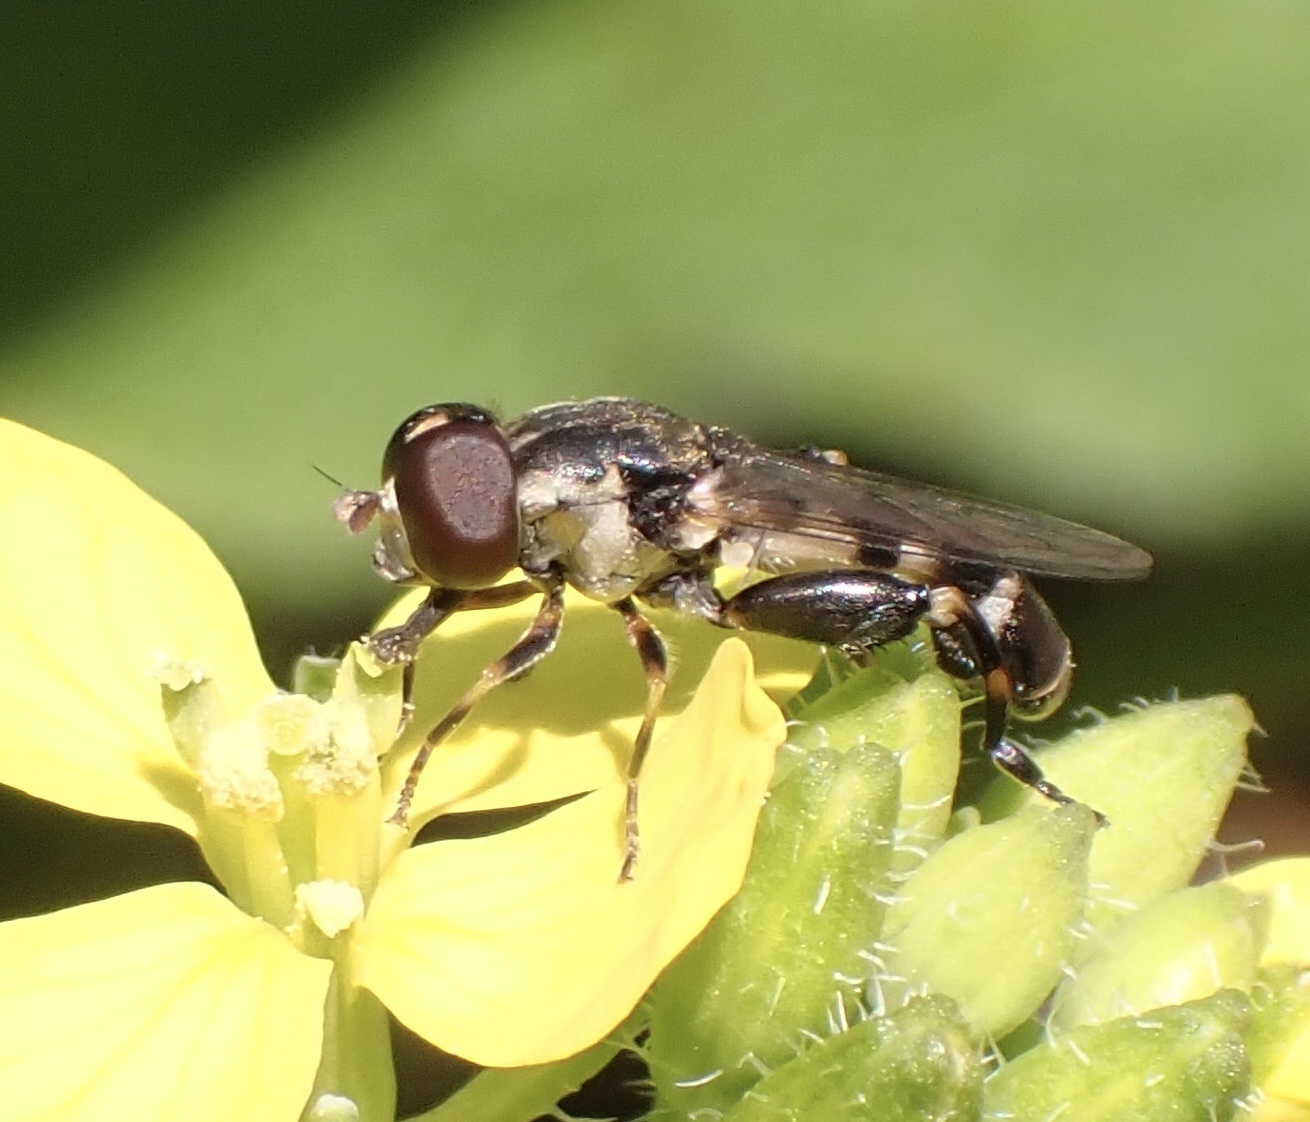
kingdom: Animalia
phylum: Arthropoda
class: Insecta
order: Diptera
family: Syrphidae
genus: Syritta
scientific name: Syritta pipiens
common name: Hover fly
